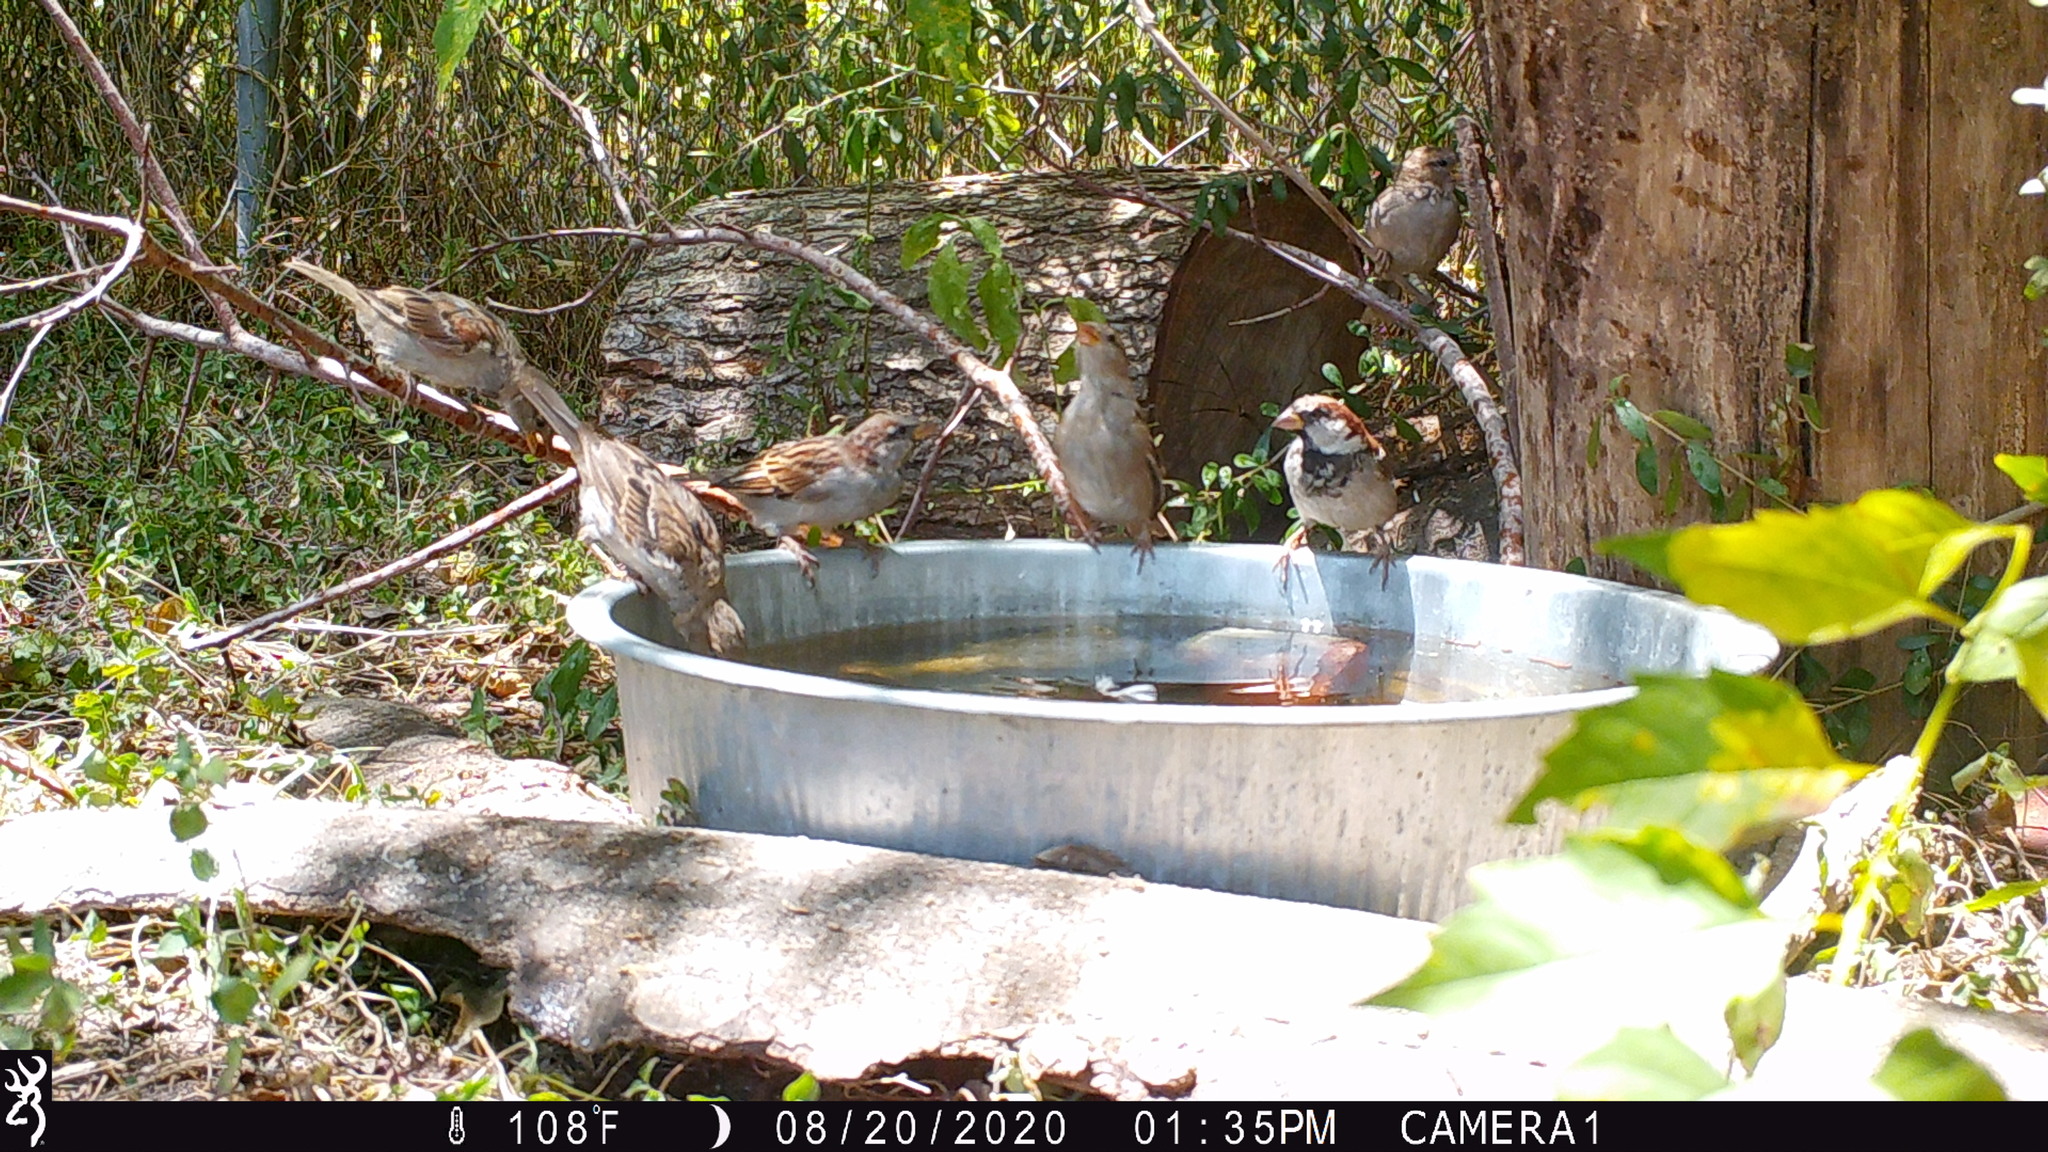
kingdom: Animalia
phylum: Chordata
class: Aves
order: Passeriformes
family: Passeridae
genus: Passer
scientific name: Passer domesticus
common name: House sparrow
